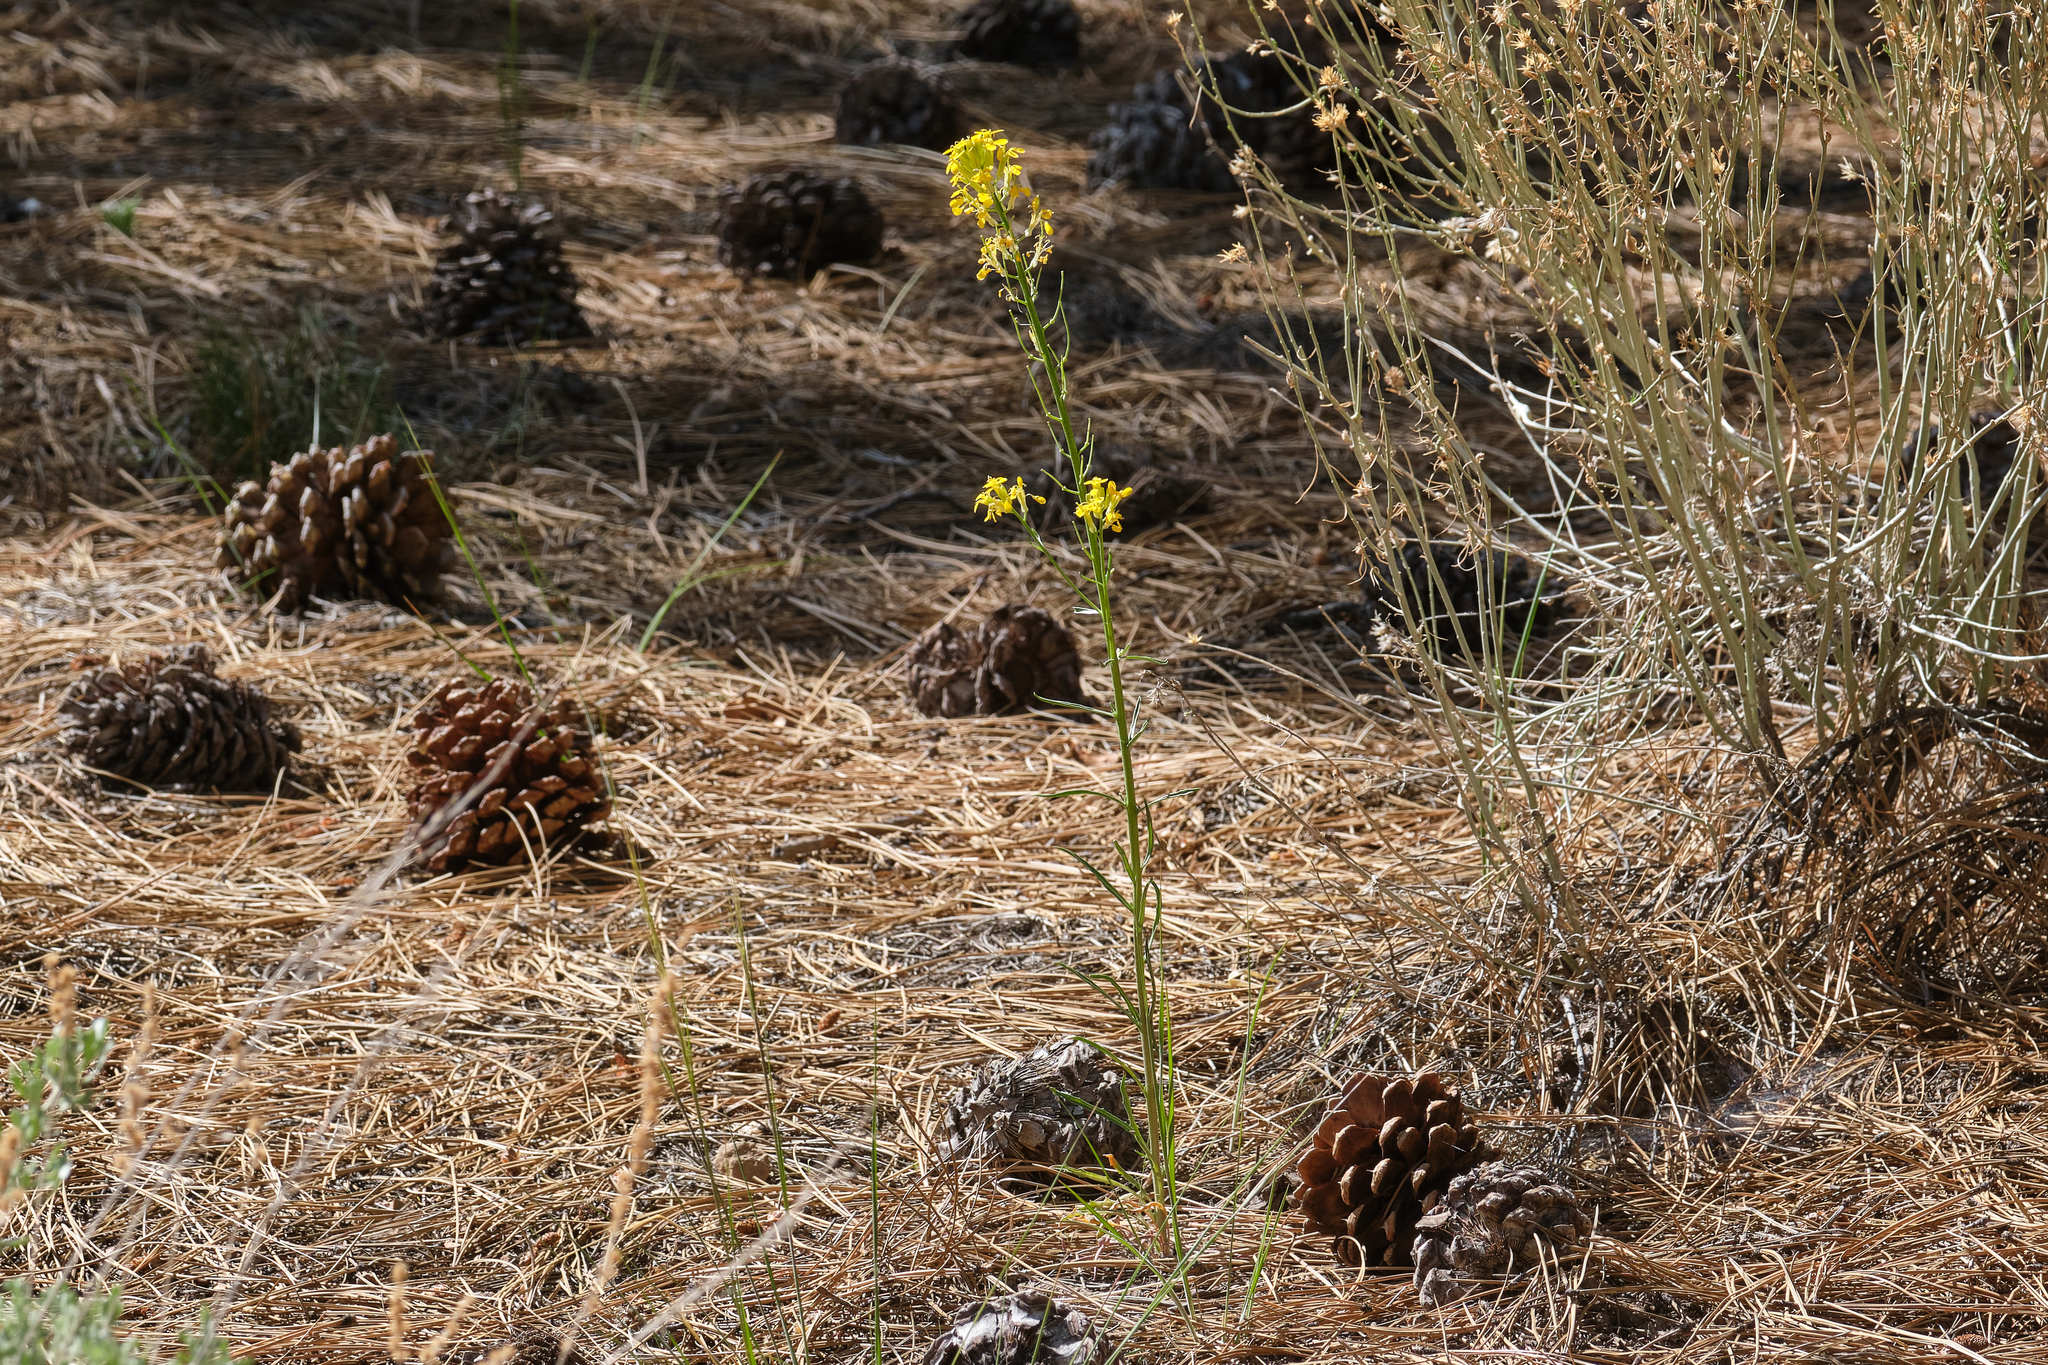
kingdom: Plantae
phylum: Tracheophyta
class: Magnoliopsida
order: Brassicales
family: Brassicaceae
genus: Erysimum
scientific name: Erysimum capitatum
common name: Western wallflower
